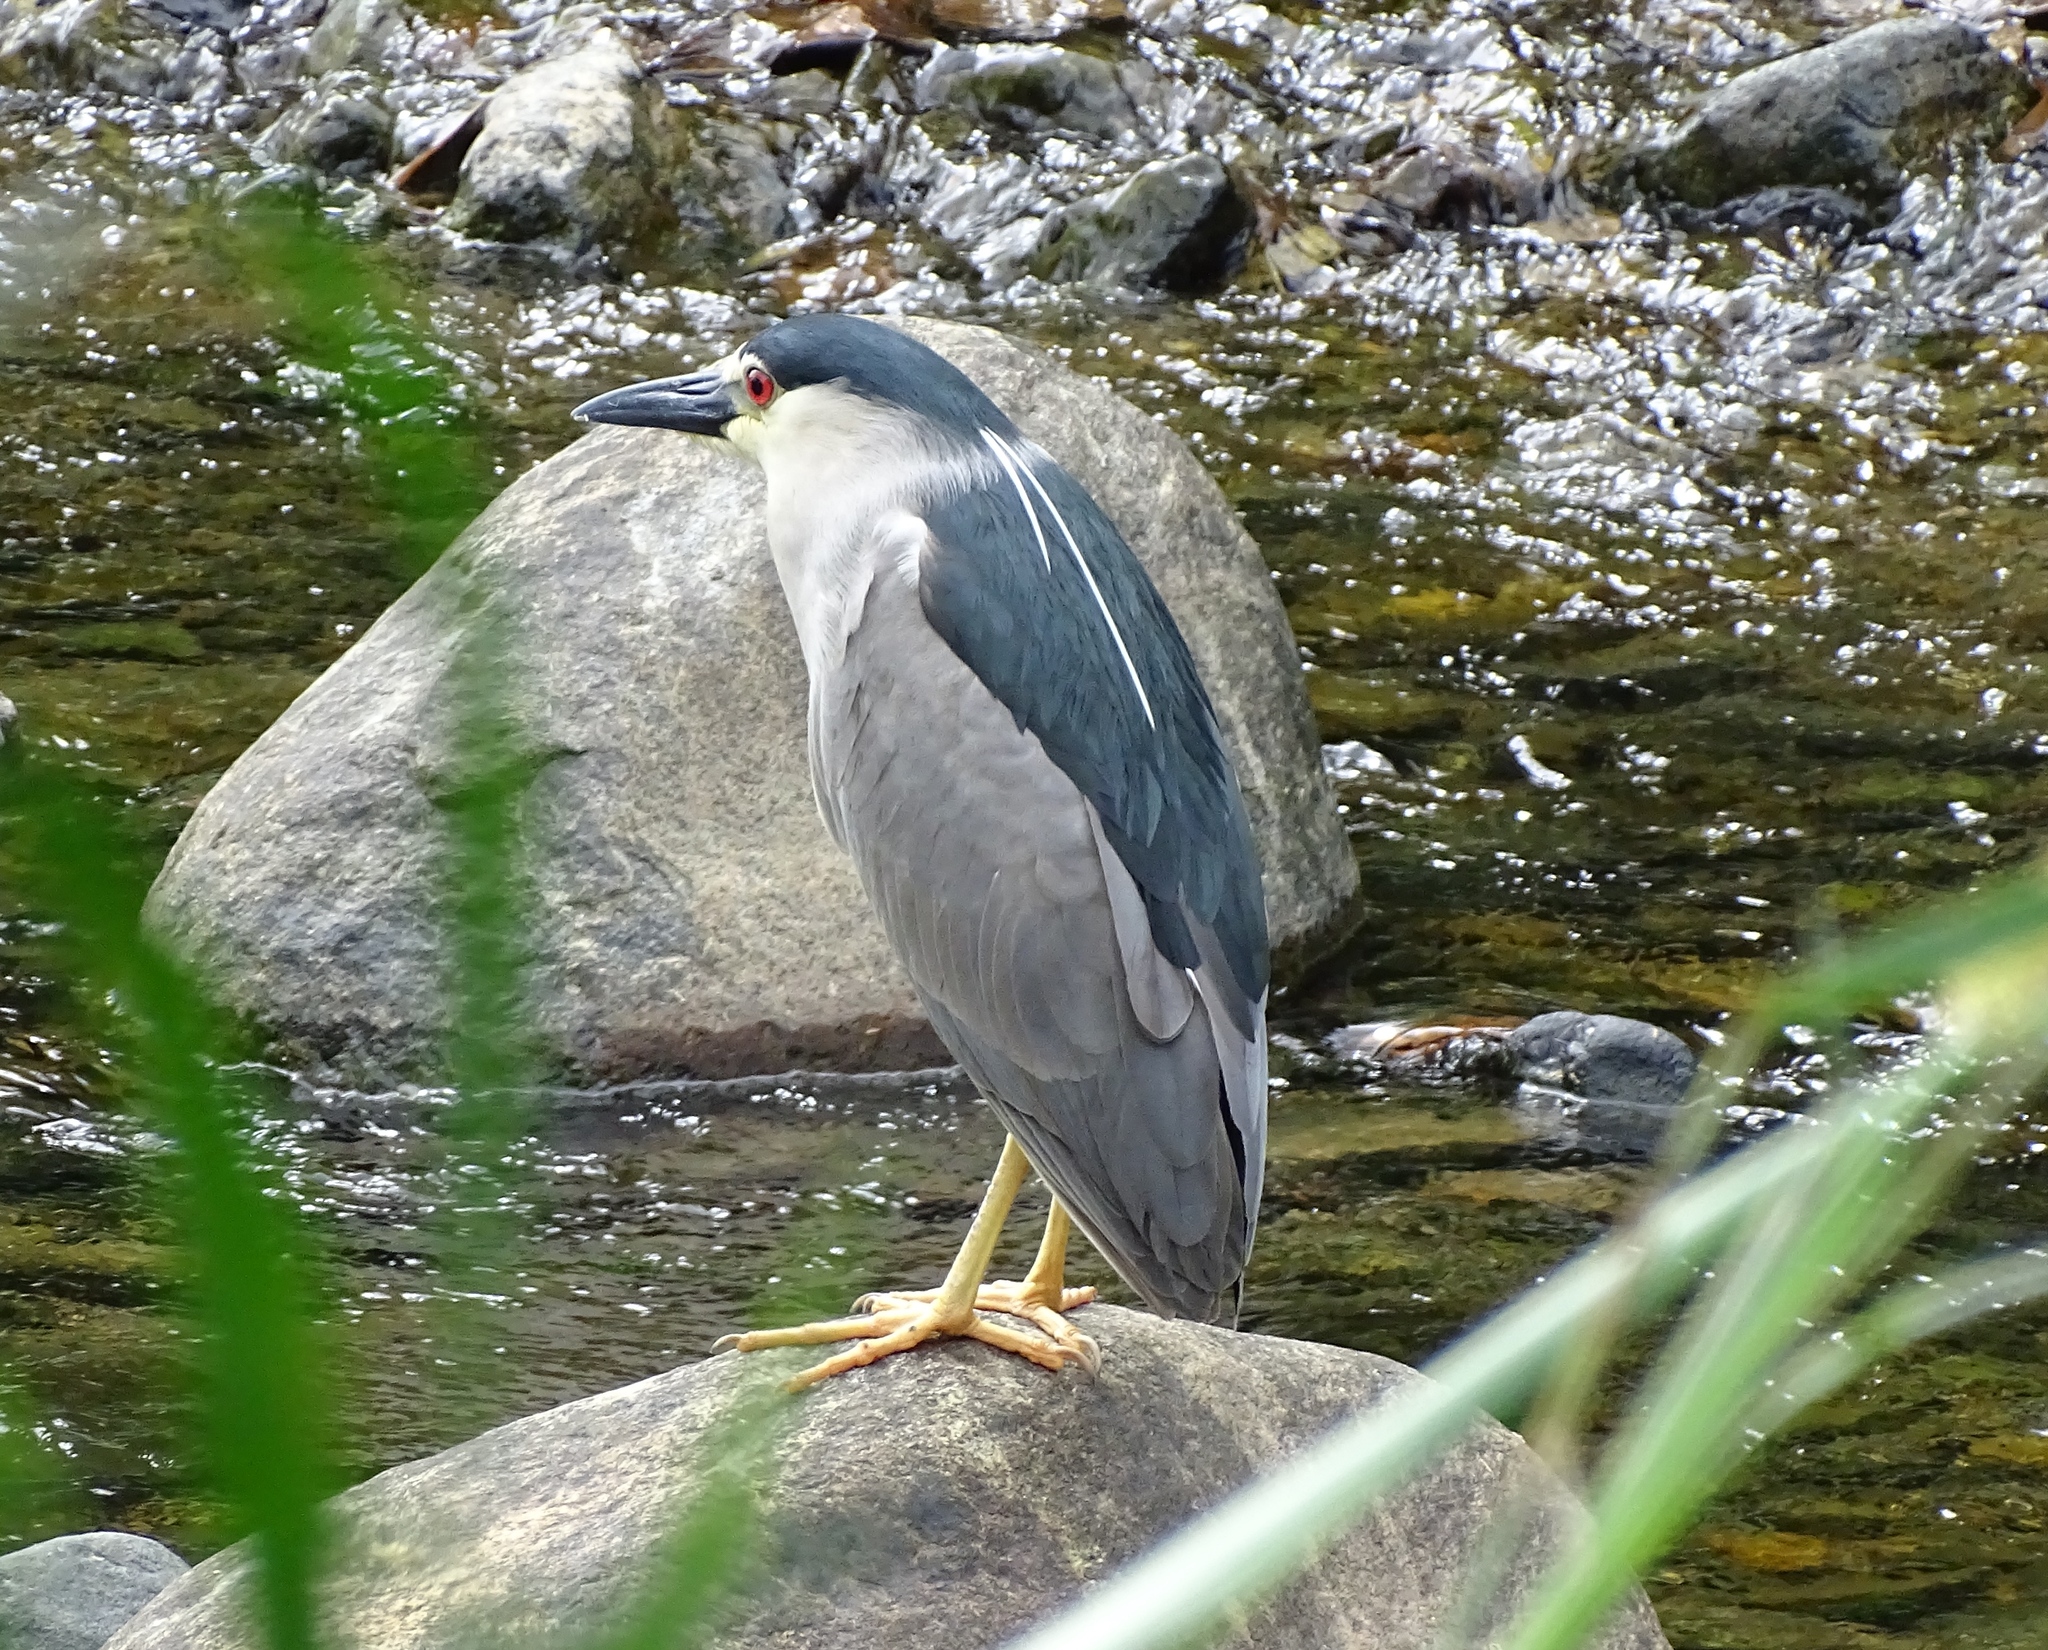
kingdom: Animalia
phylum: Chordata
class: Aves
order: Pelecaniformes
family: Ardeidae
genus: Nycticorax
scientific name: Nycticorax nycticorax
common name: Black-crowned night heron
